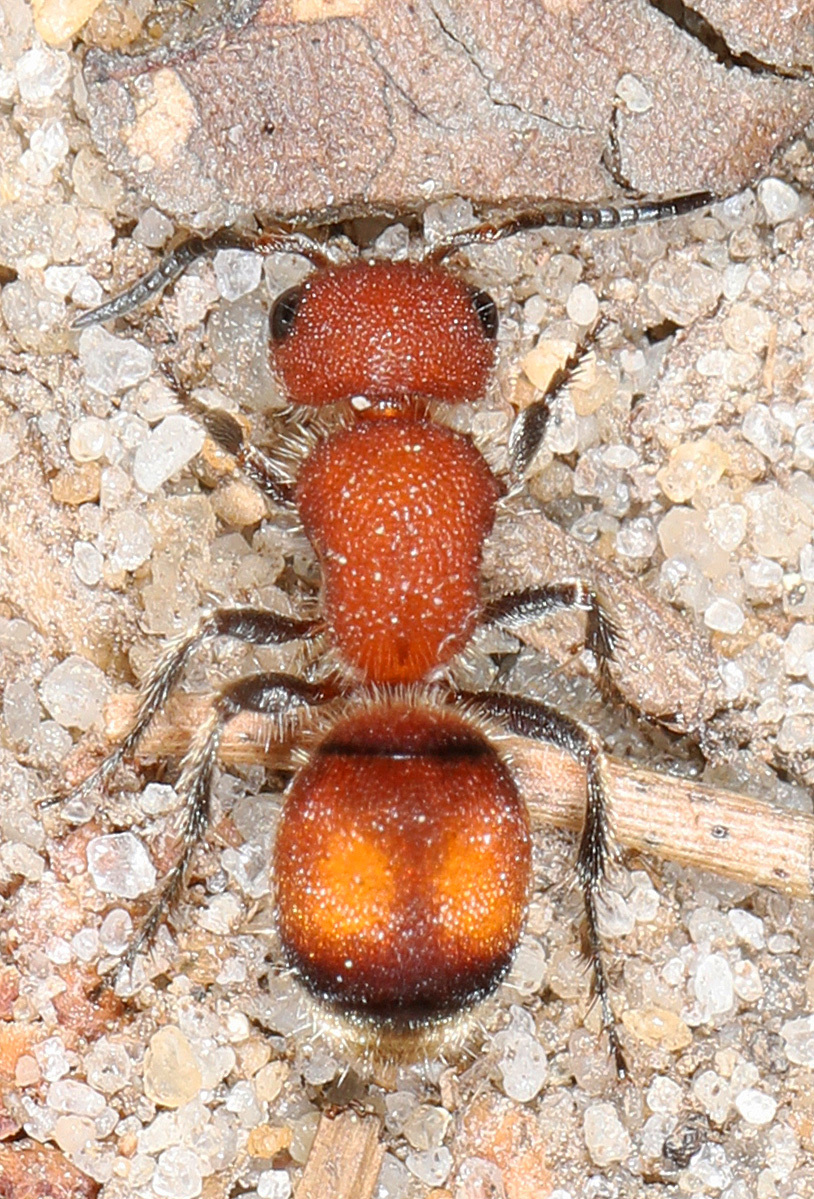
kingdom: Animalia
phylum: Arthropoda
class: Insecta
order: Hymenoptera
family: Mutillidae
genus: Pseudomethoca
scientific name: Pseudomethoca
